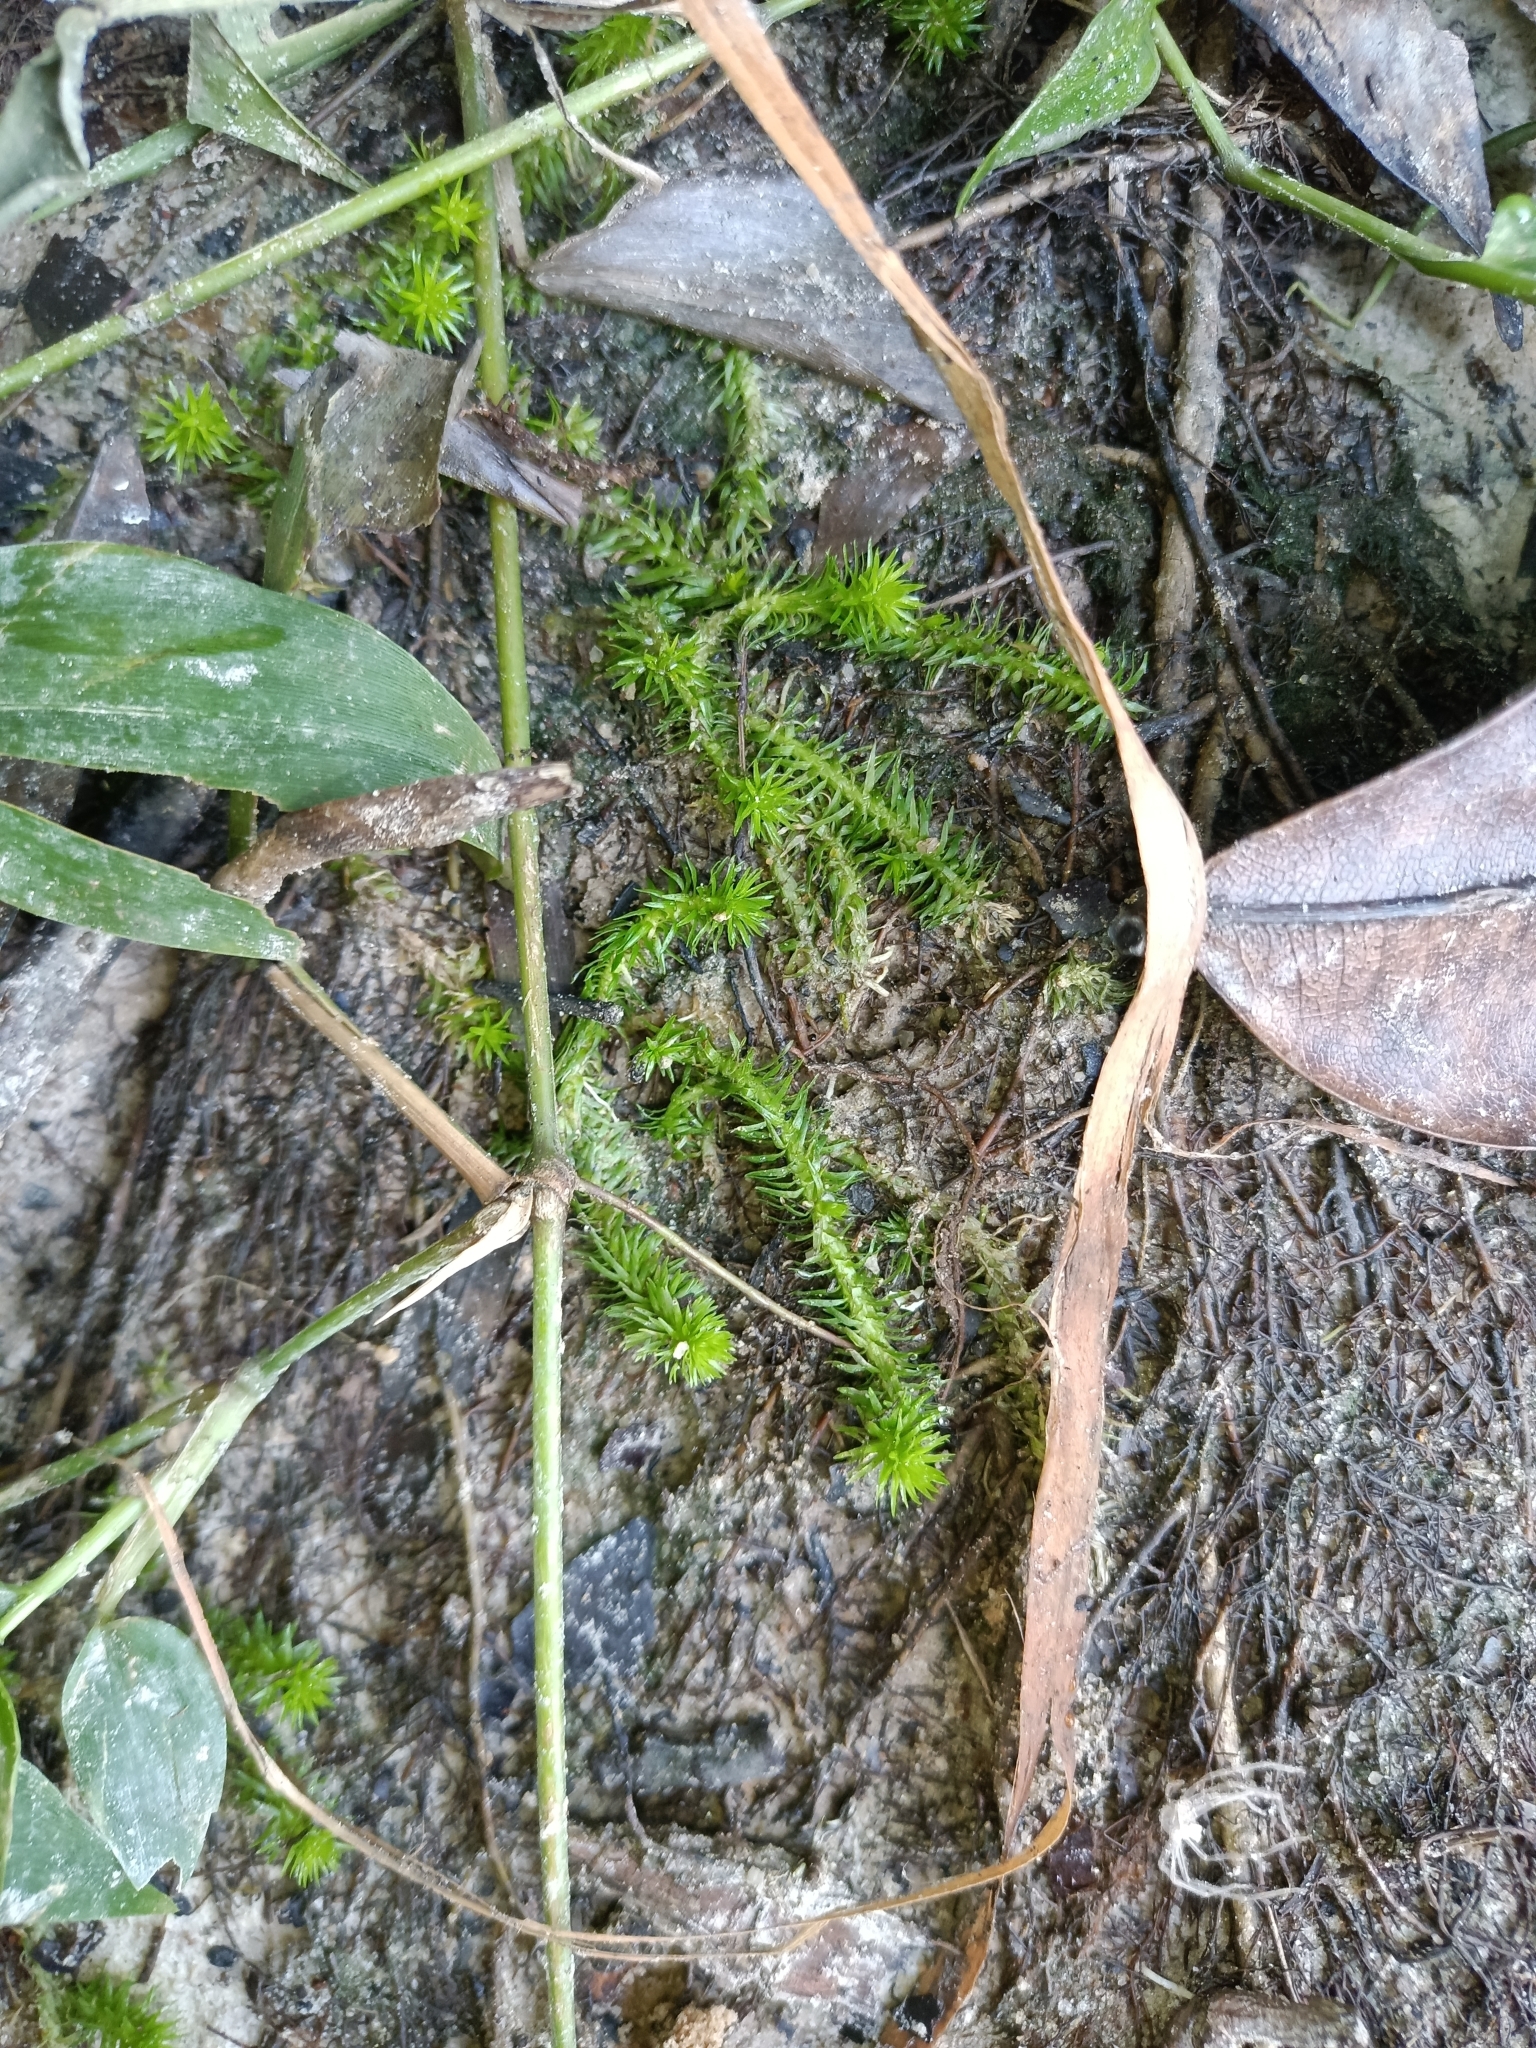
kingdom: Plantae
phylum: Tracheophyta
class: Liliopsida
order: Poales
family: Mayacaceae
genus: Mayaca
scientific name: Mayaca fluviatilis
